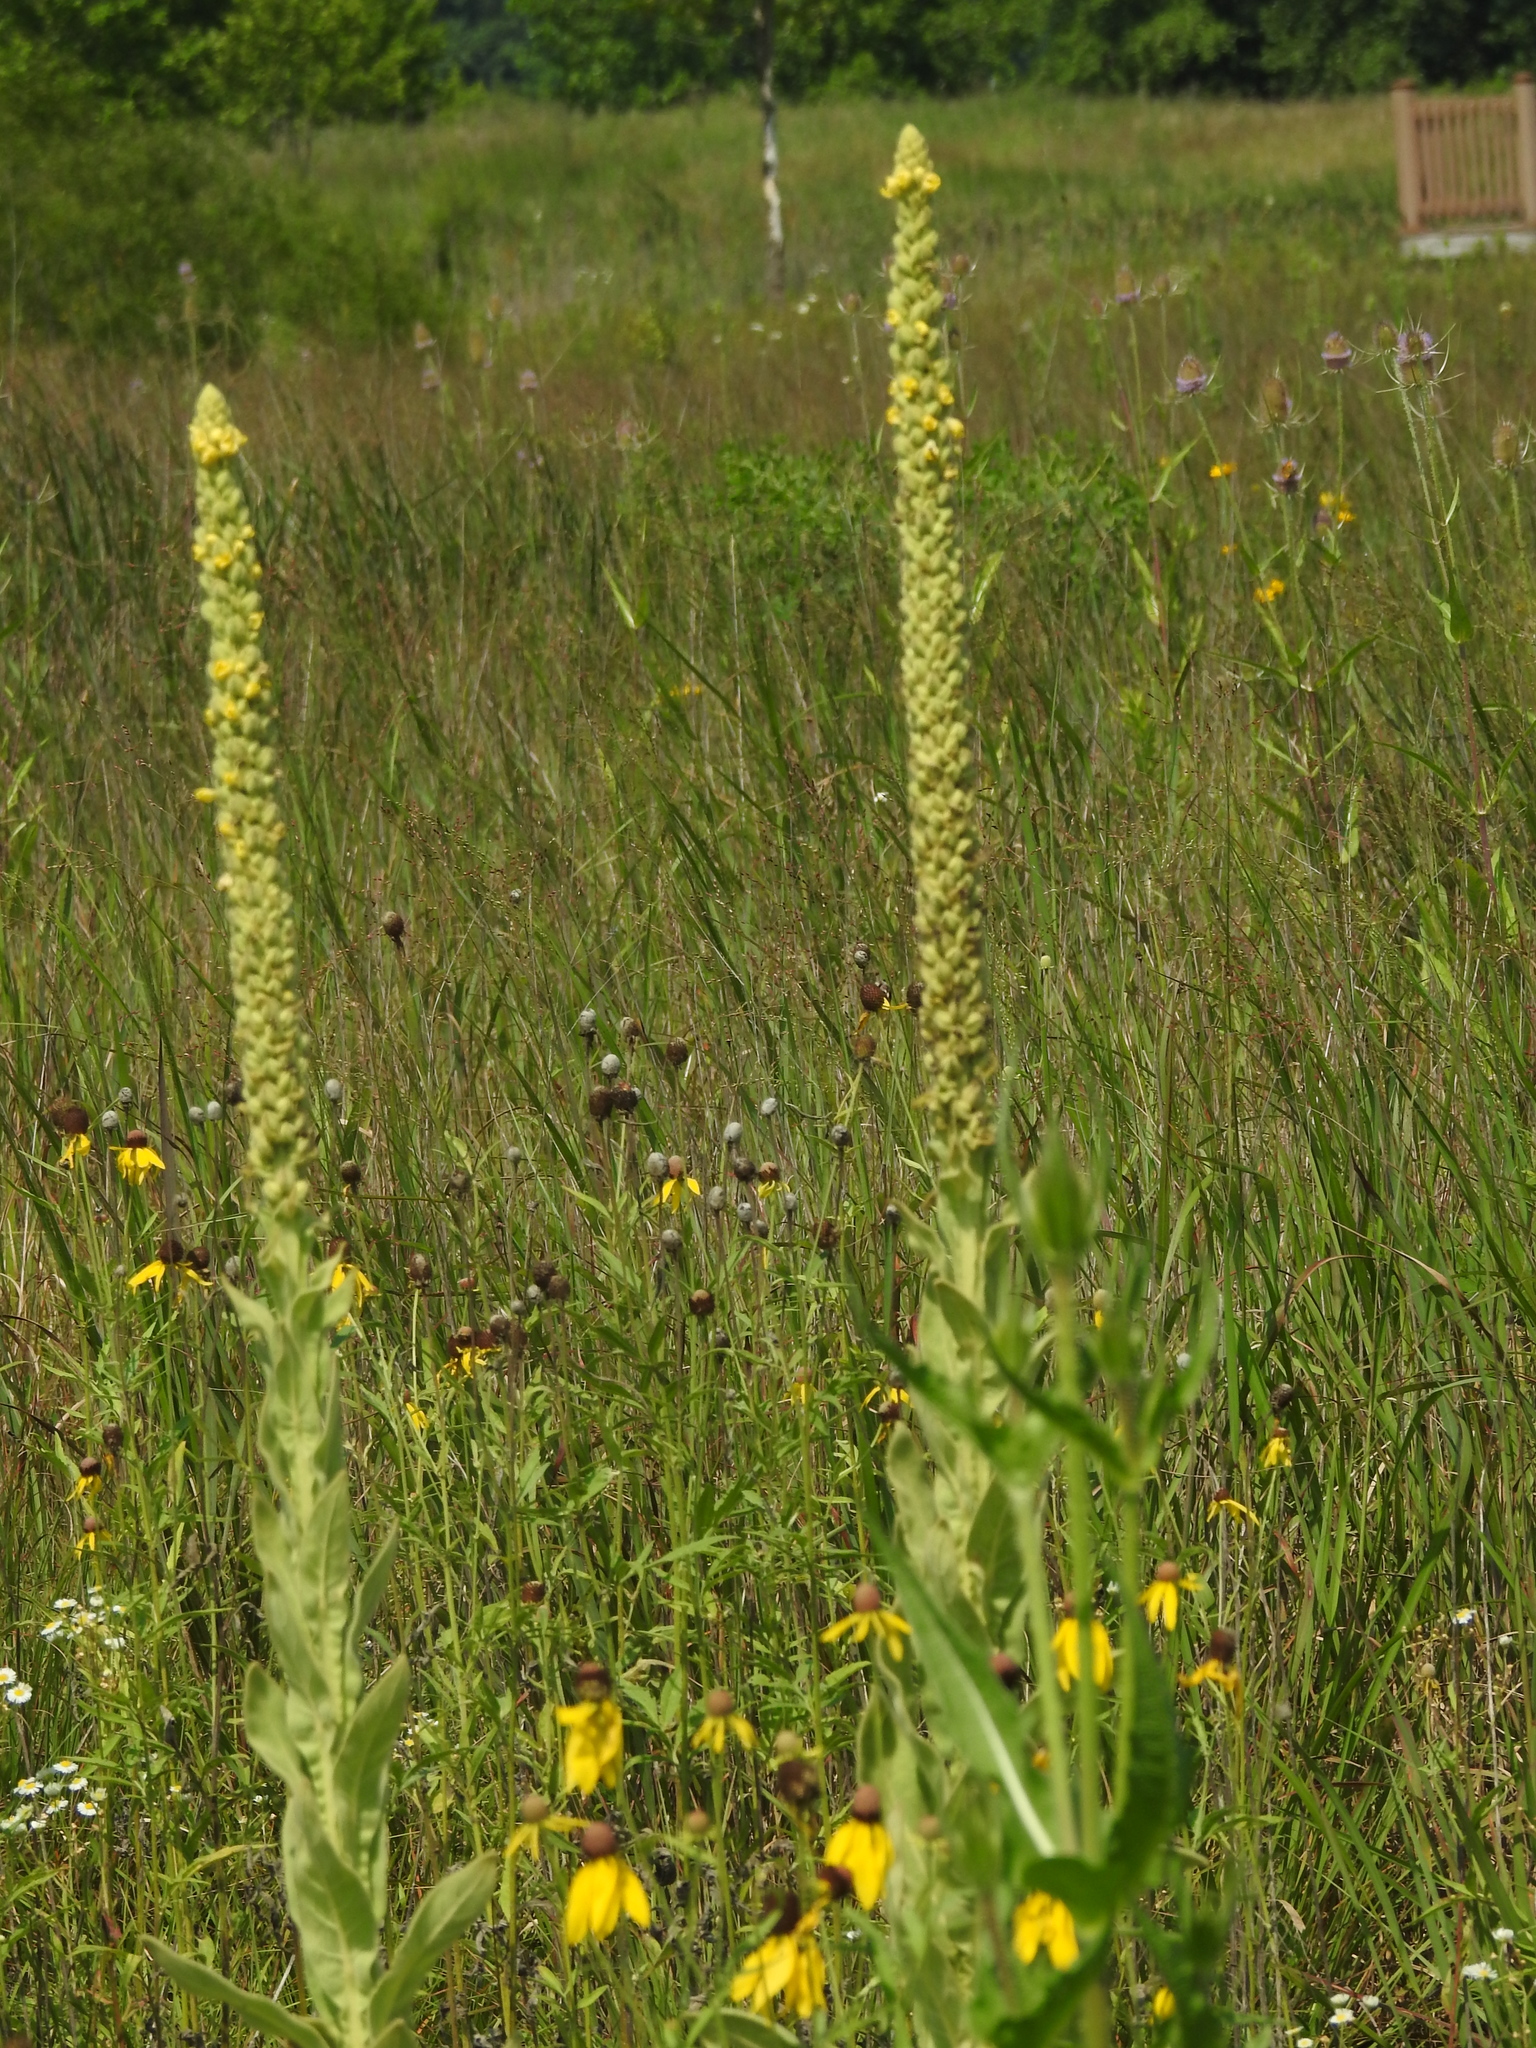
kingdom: Plantae
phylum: Tracheophyta
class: Magnoliopsida
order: Lamiales
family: Scrophulariaceae
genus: Verbascum
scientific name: Verbascum thapsus
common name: Common mullein
